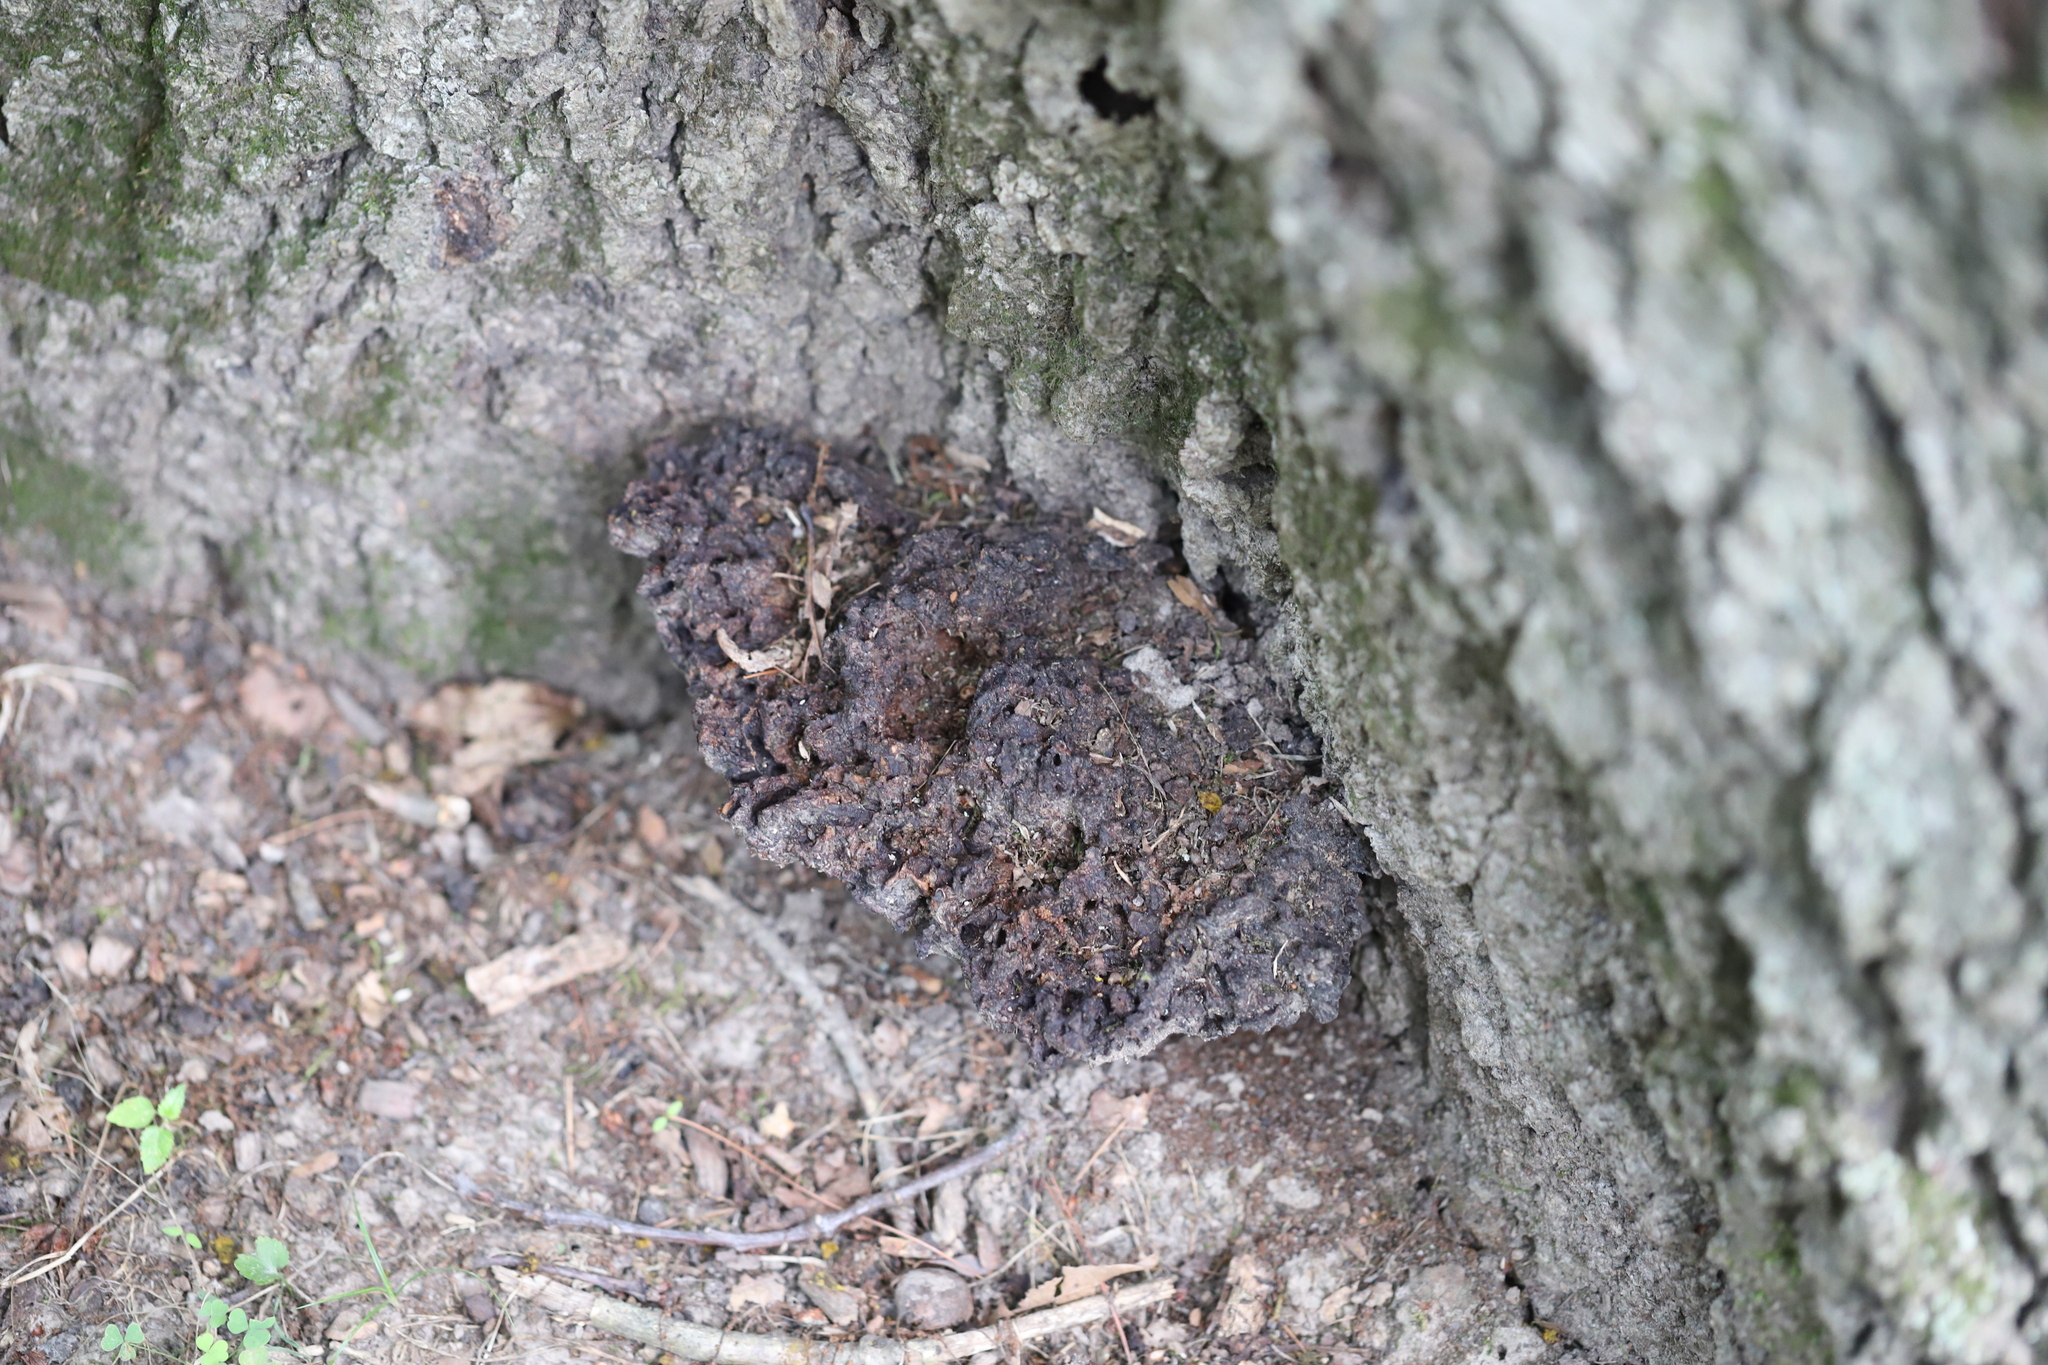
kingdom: Bacteria
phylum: Proteobacteria
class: Alphaproteobacteria
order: Rhizobiales
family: Rhizobiaceae
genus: Rhizobium
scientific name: Rhizobium Agrobacterium radiobacter
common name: Bacterial crown gall
